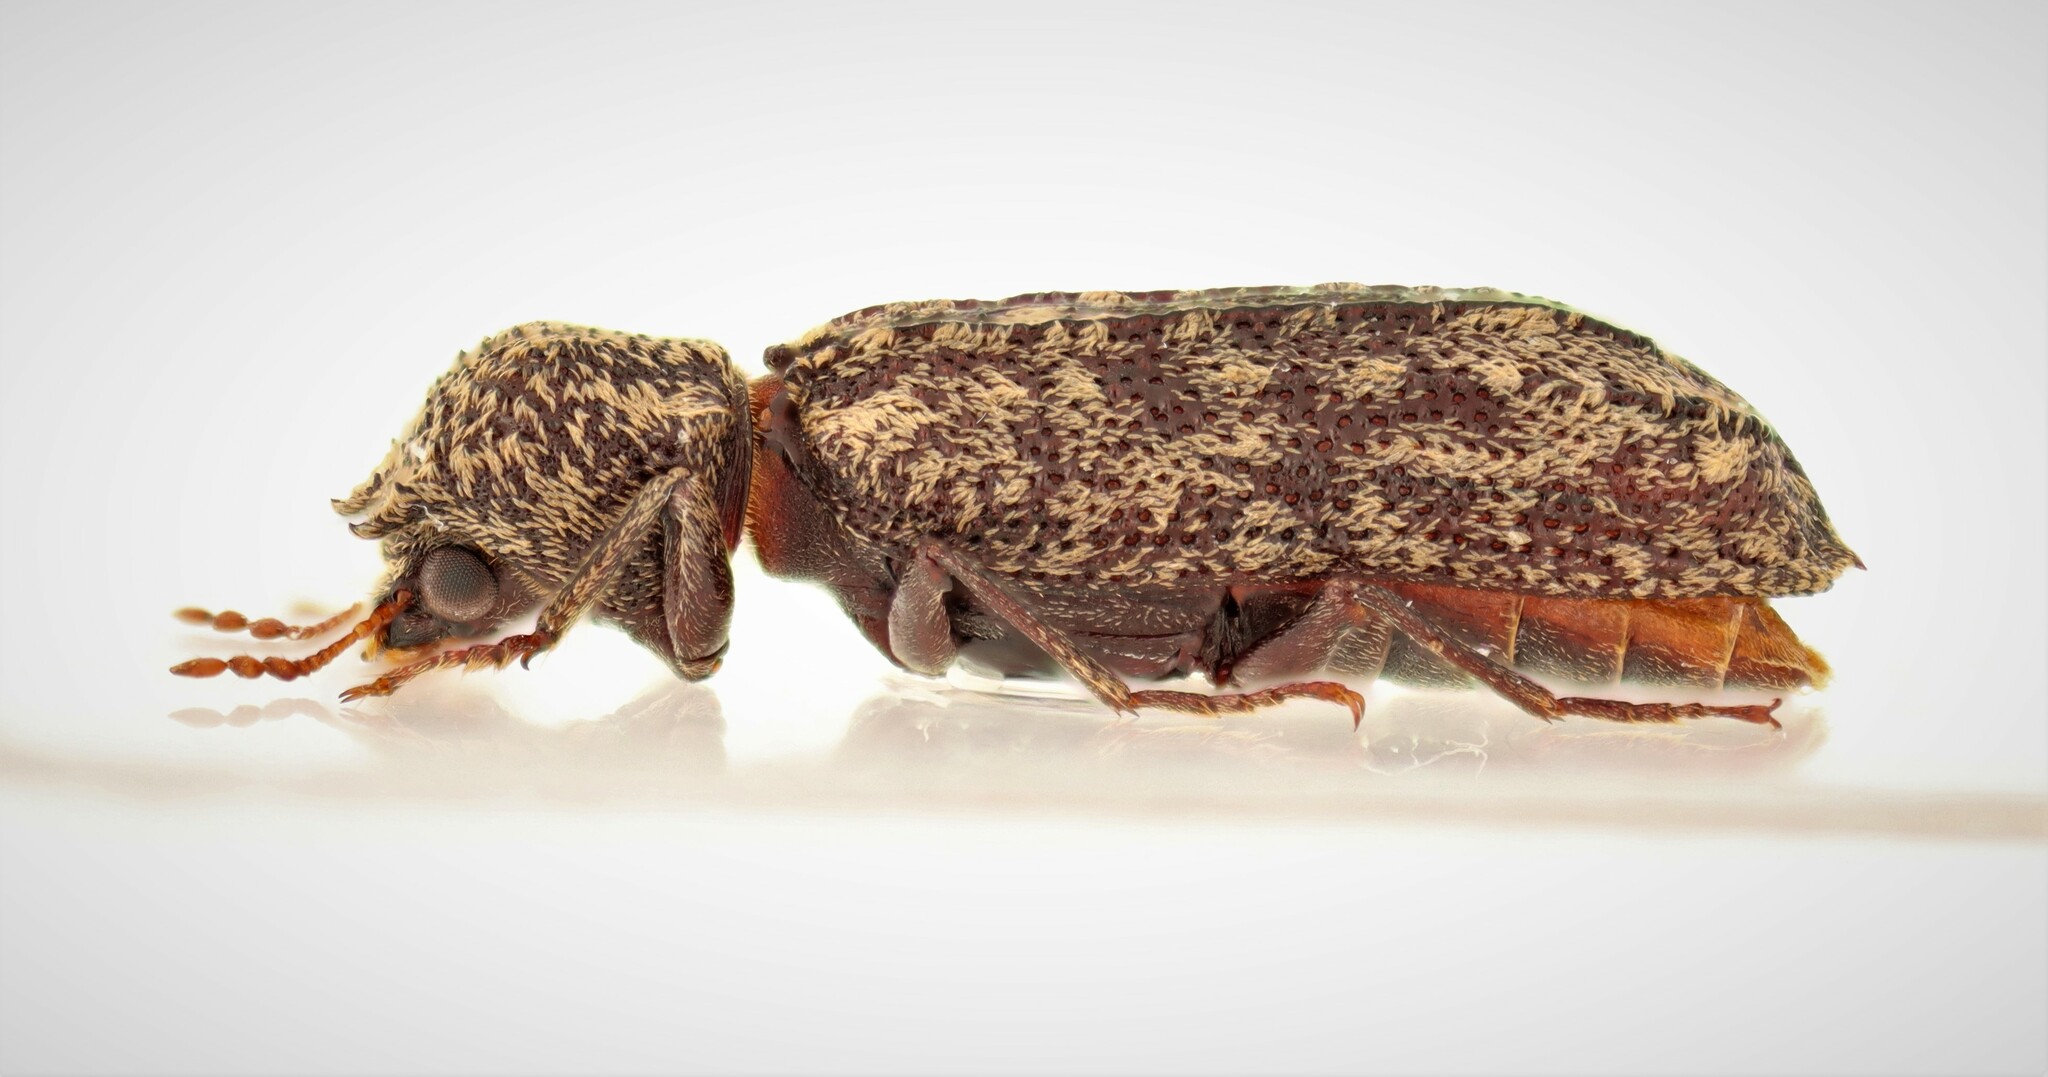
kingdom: Animalia
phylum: Arthropoda
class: Insecta
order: Coleoptera
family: Bostrichidae
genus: Lichenophanes
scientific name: Lichenophanes bicornis
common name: Two-horned powder-post beetle
